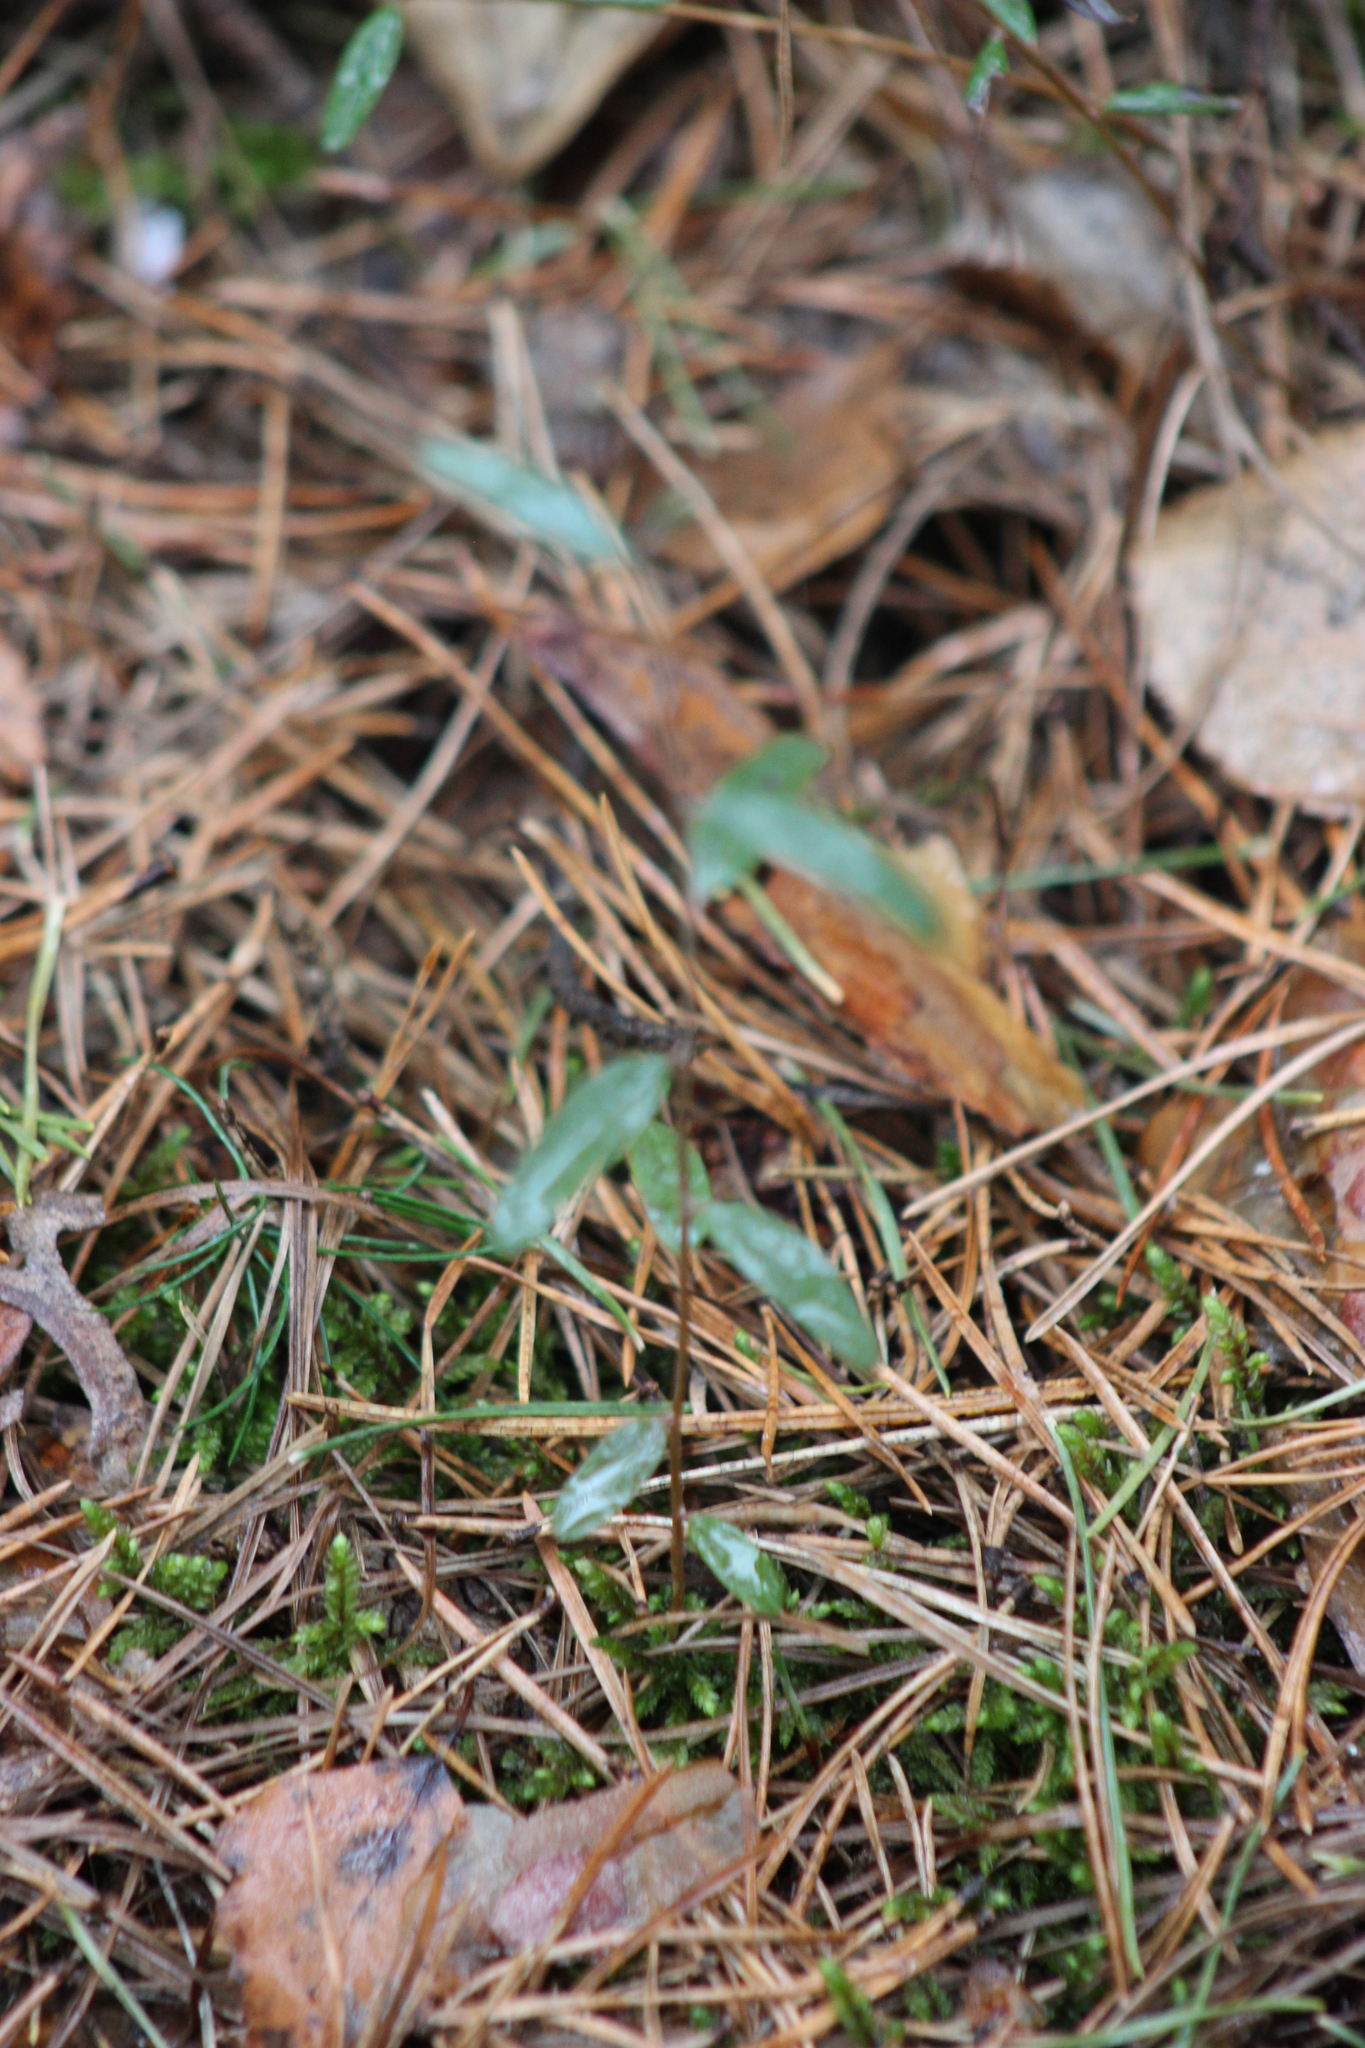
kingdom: Plantae
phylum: Tracheophyta
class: Magnoliopsida
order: Ericales
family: Ericaceae
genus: Andromeda
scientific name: Andromeda polifolia
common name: Bog-rosemary
